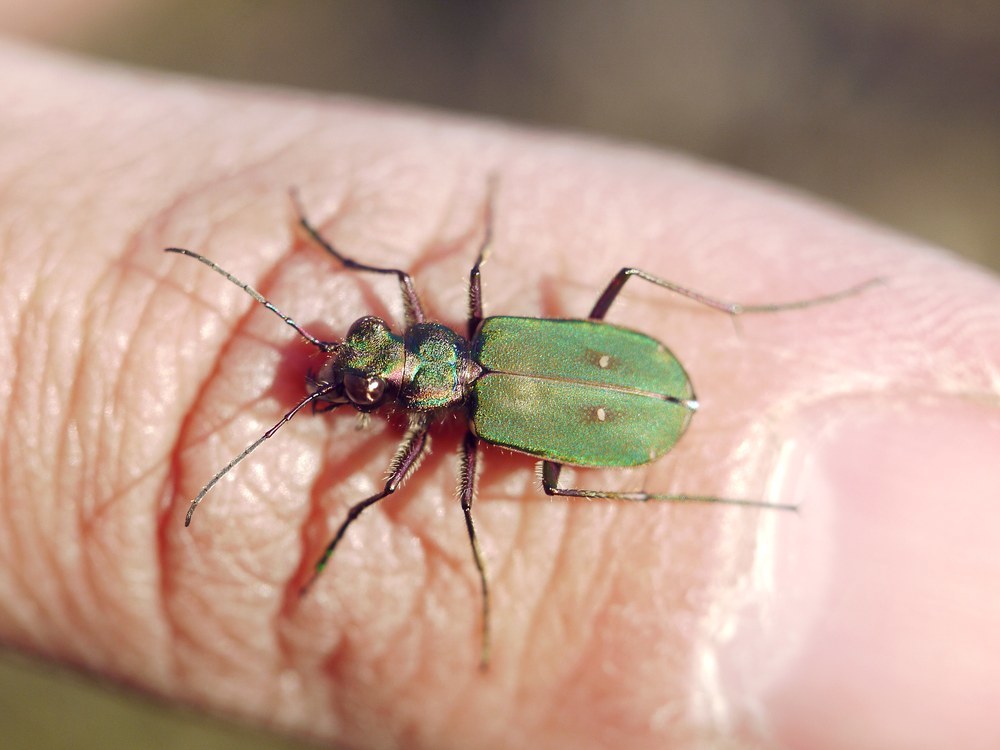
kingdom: Animalia
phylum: Arthropoda
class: Insecta
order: Coleoptera
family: Carabidae
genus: Cicindela
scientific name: Cicindela campestris
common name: Common tiger beetle
